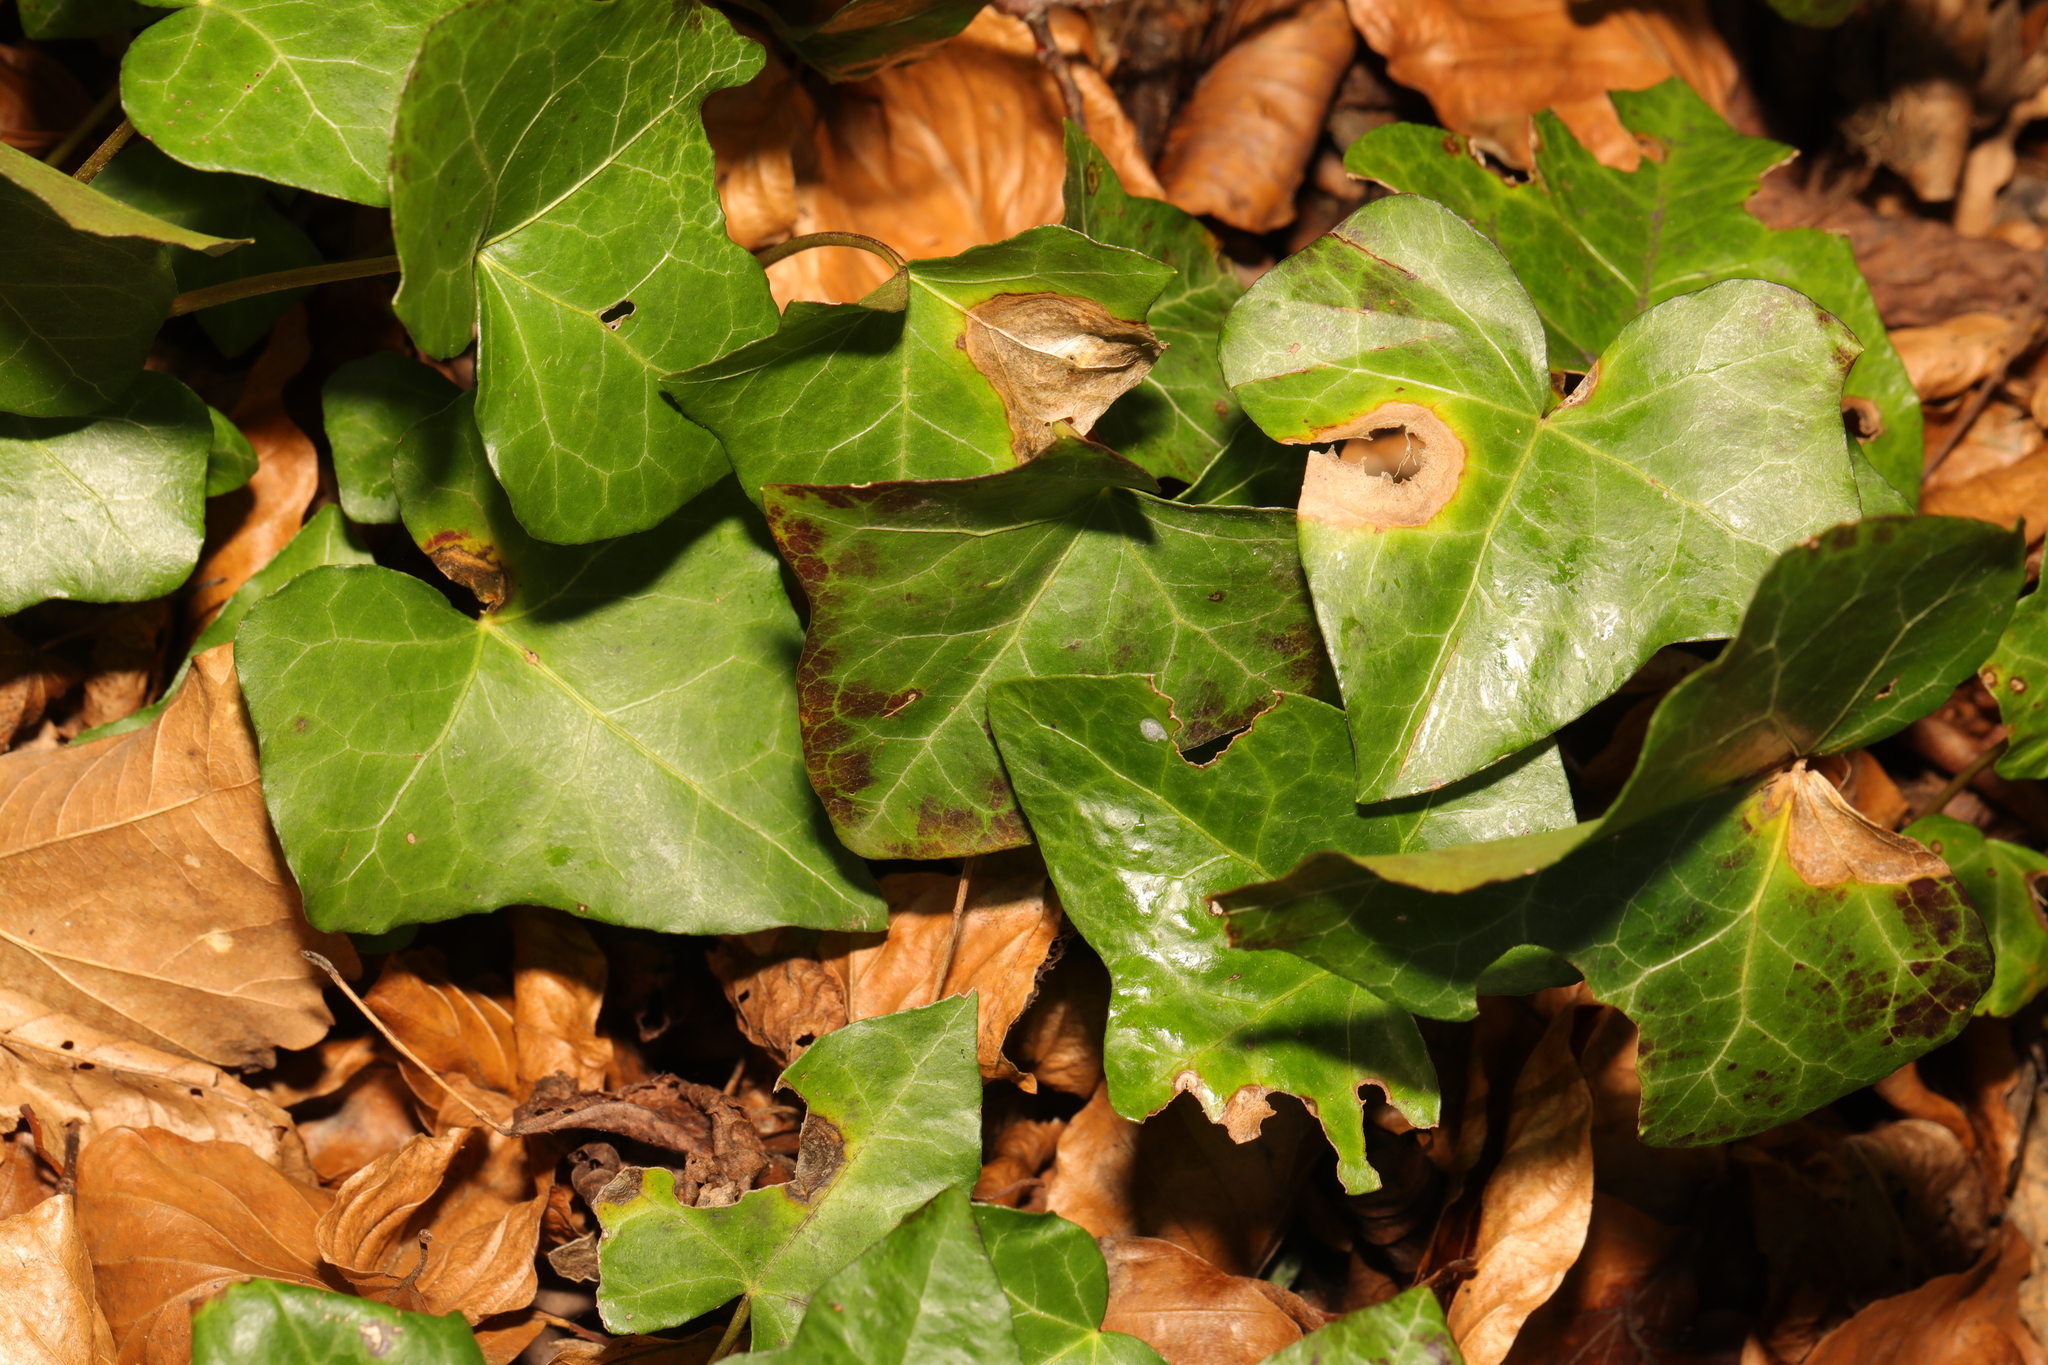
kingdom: Plantae
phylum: Tracheophyta
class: Magnoliopsida
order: Apiales
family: Araliaceae
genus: Hedera
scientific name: Hedera helix
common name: Ivy
